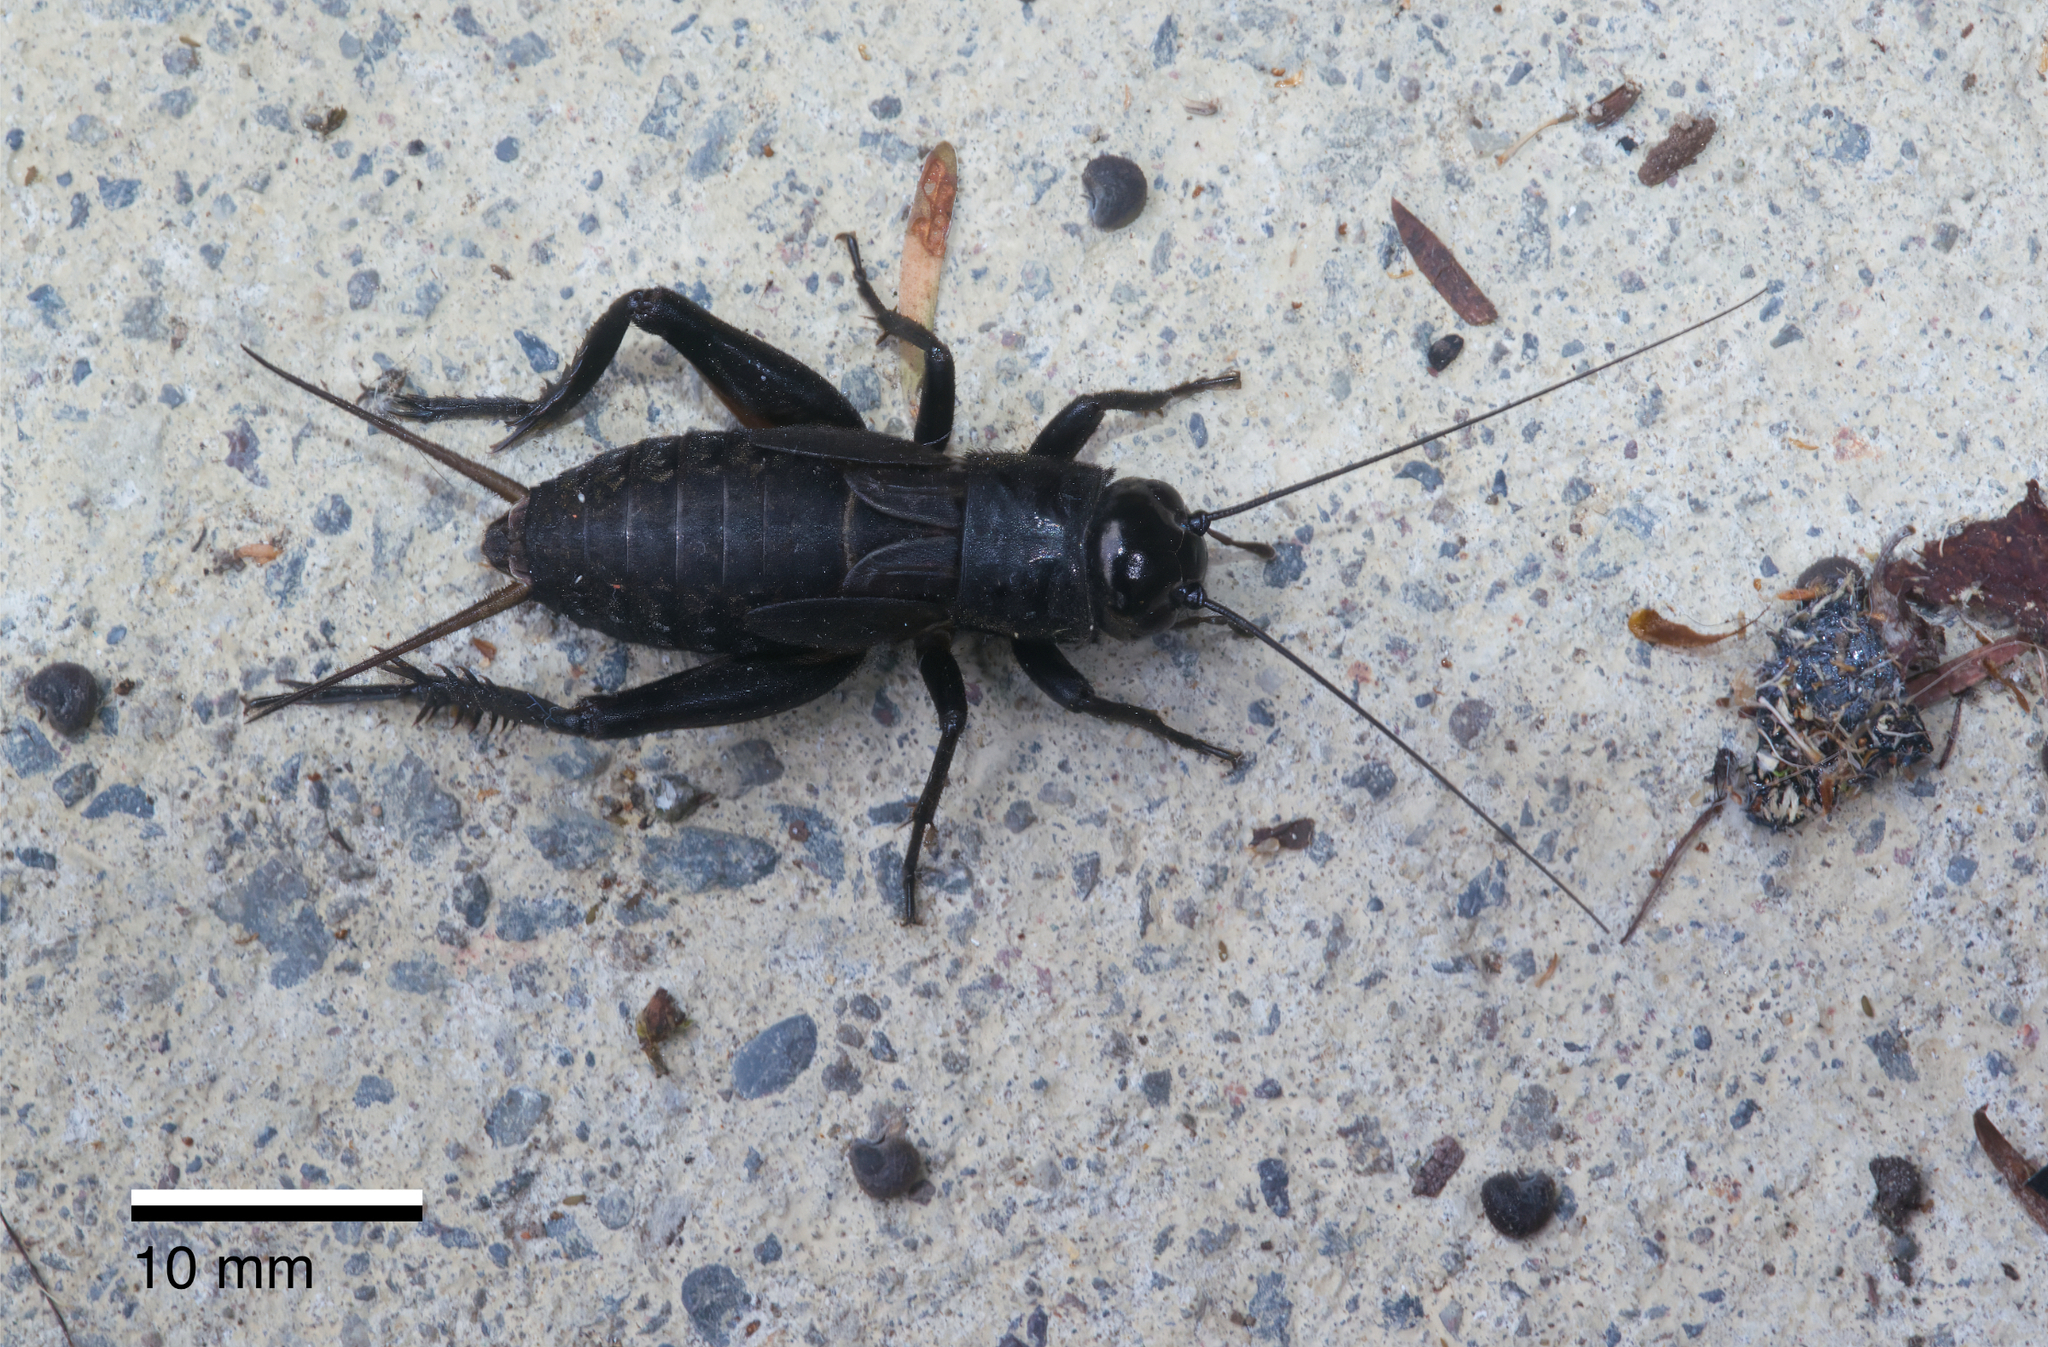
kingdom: Animalia
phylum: Arthropoda
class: Insecta
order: Orthoptera
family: Gryllidae
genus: Teleogryllus
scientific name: Teleogryllus commodus
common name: Black field cricket
